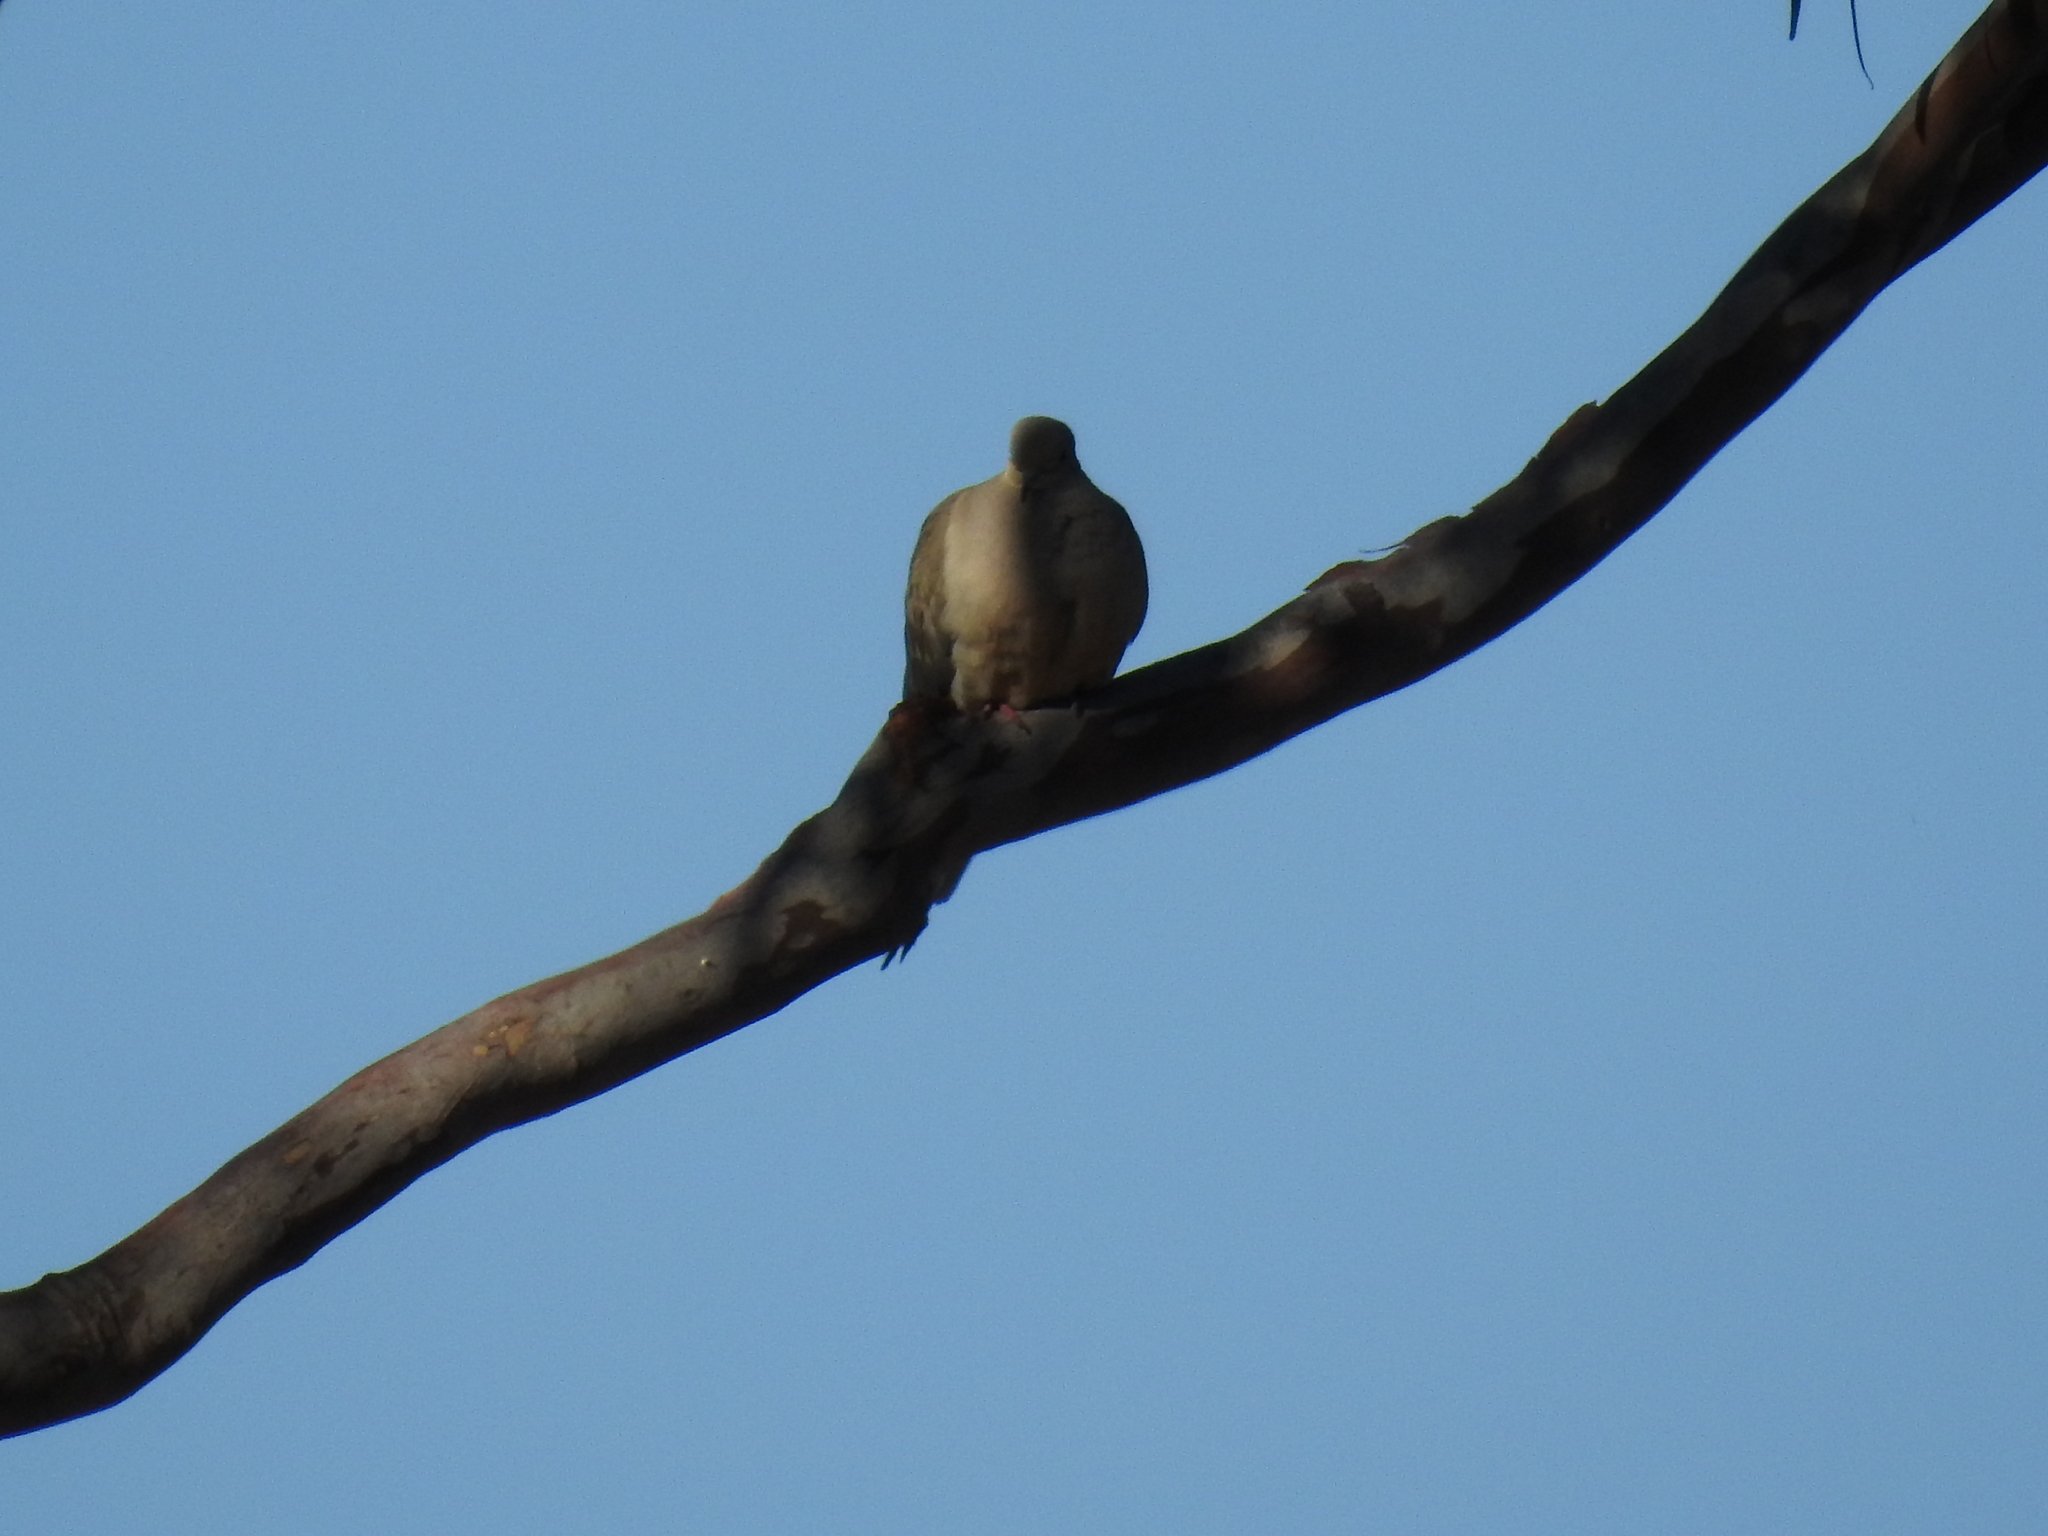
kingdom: Animalia
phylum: Chordata
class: Aves
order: Columbiformes
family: Columbidae
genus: Zenaida
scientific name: Zenaida macroura
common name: Mourning dove
